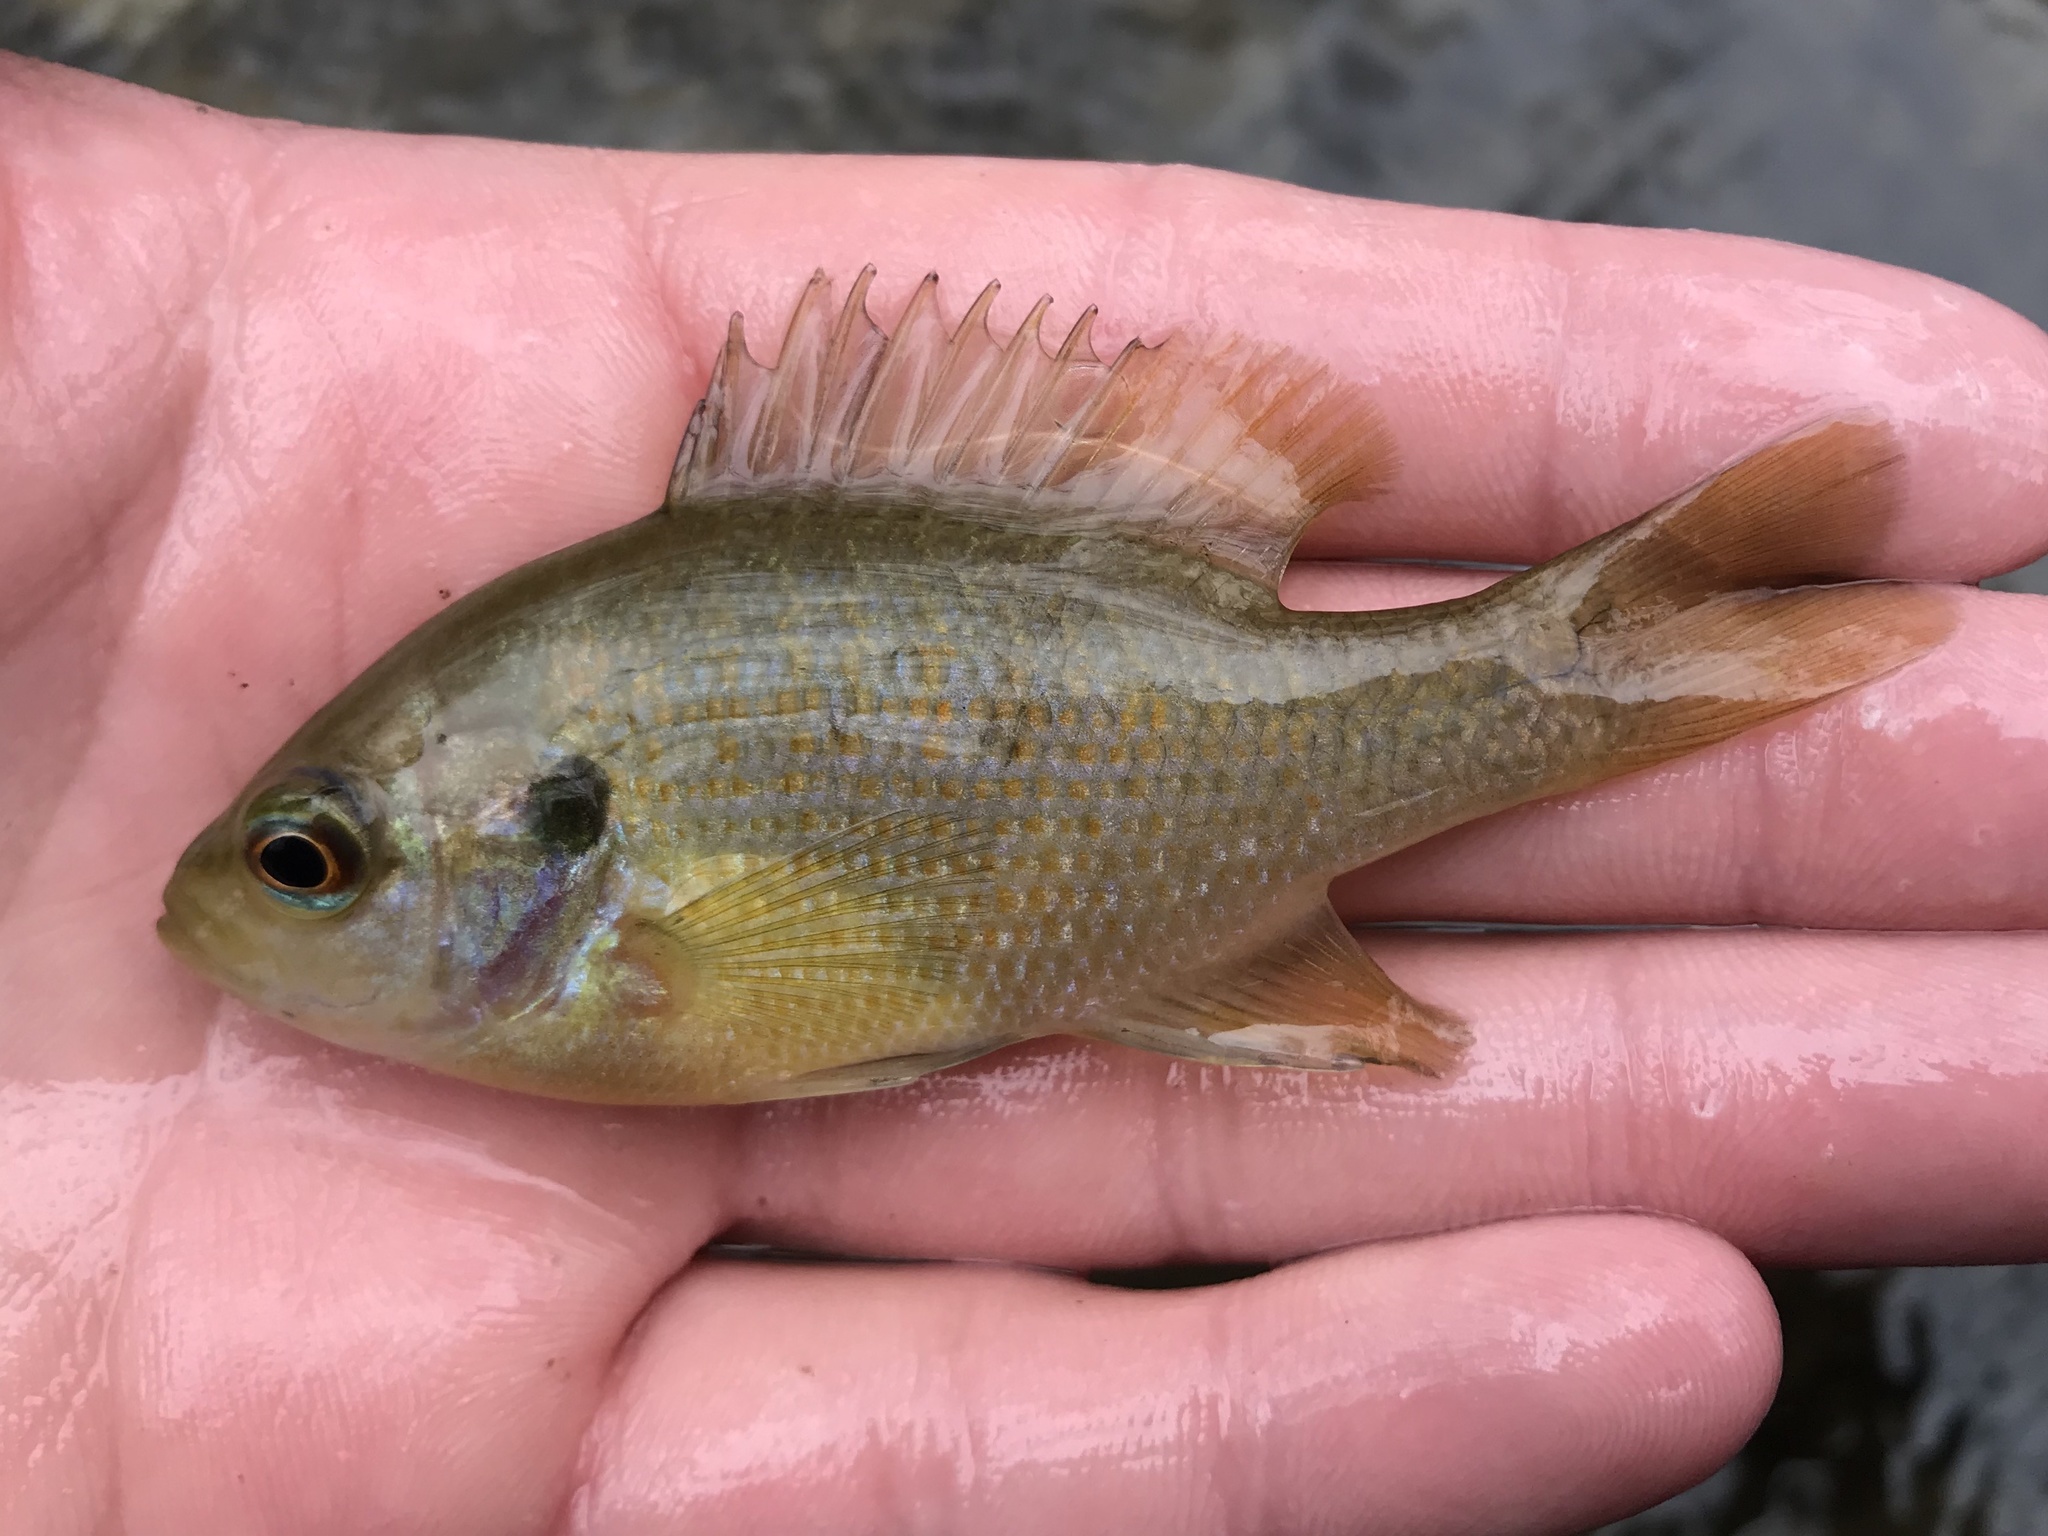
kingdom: Animalia
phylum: Chordata
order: Perciformes
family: Centrarchidae
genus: Lepomis
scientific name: Lepomis miniatus
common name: Redspotted sunfish
